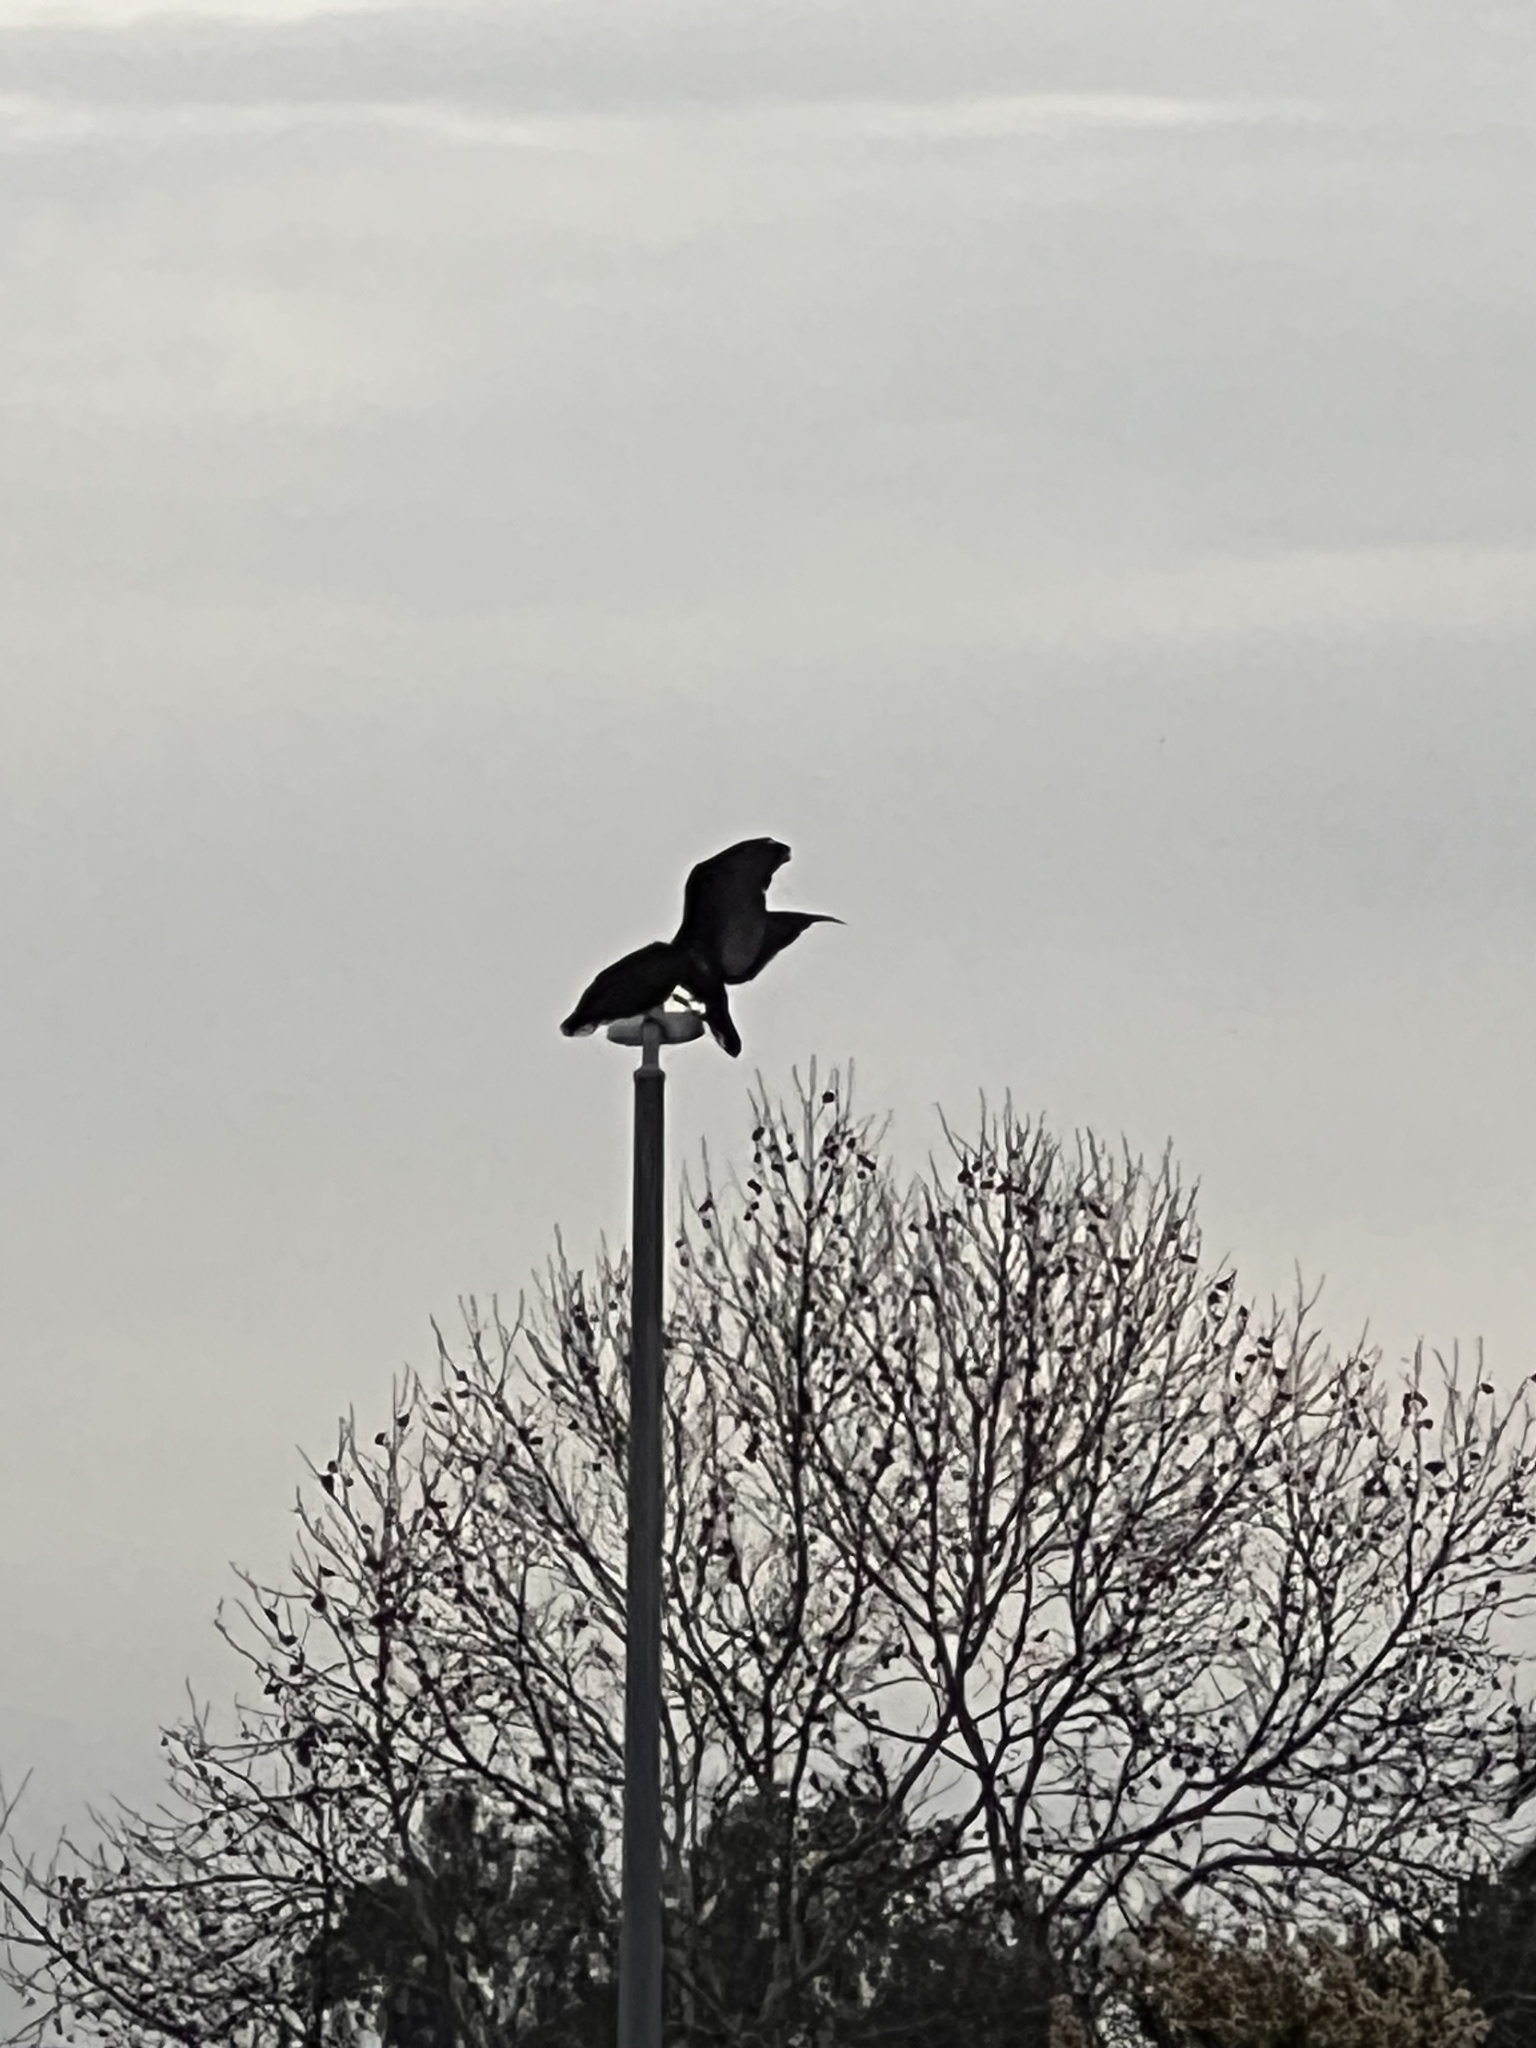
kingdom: Animalia
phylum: Chordata
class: Aves
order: Accipitriformes
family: Cathartidae
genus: Cathartes
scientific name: Cathartes aura
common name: Turkey vulture
